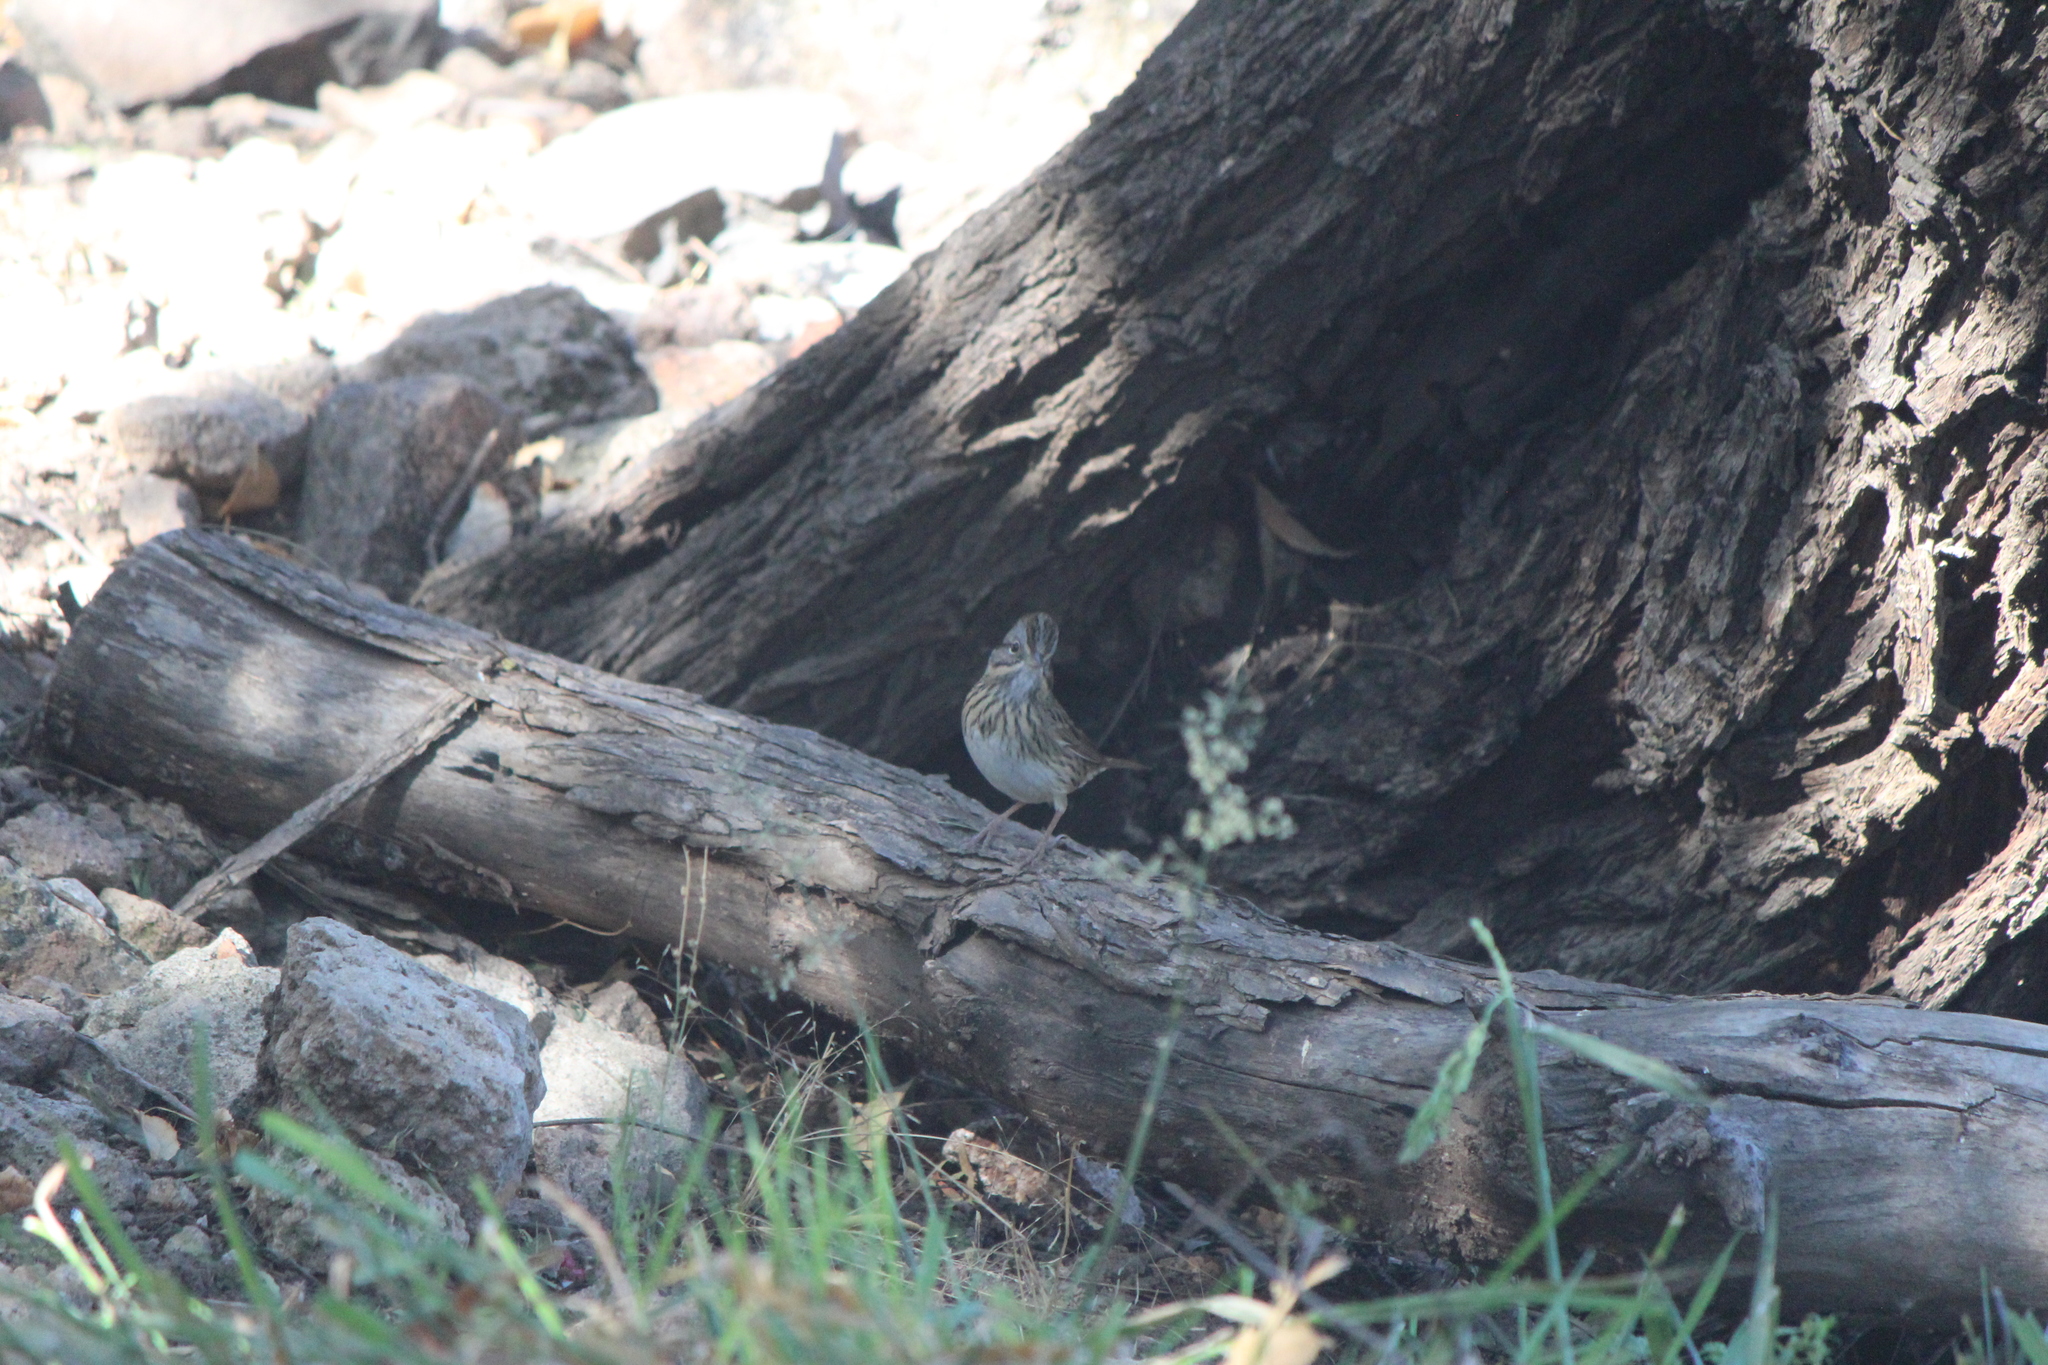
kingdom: Animalia
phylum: Chordata
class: Aves
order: Passeriformes
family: Passerellidae
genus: Melospiza
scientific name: Melospiza lincolnii
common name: Lincoln's sparrow
